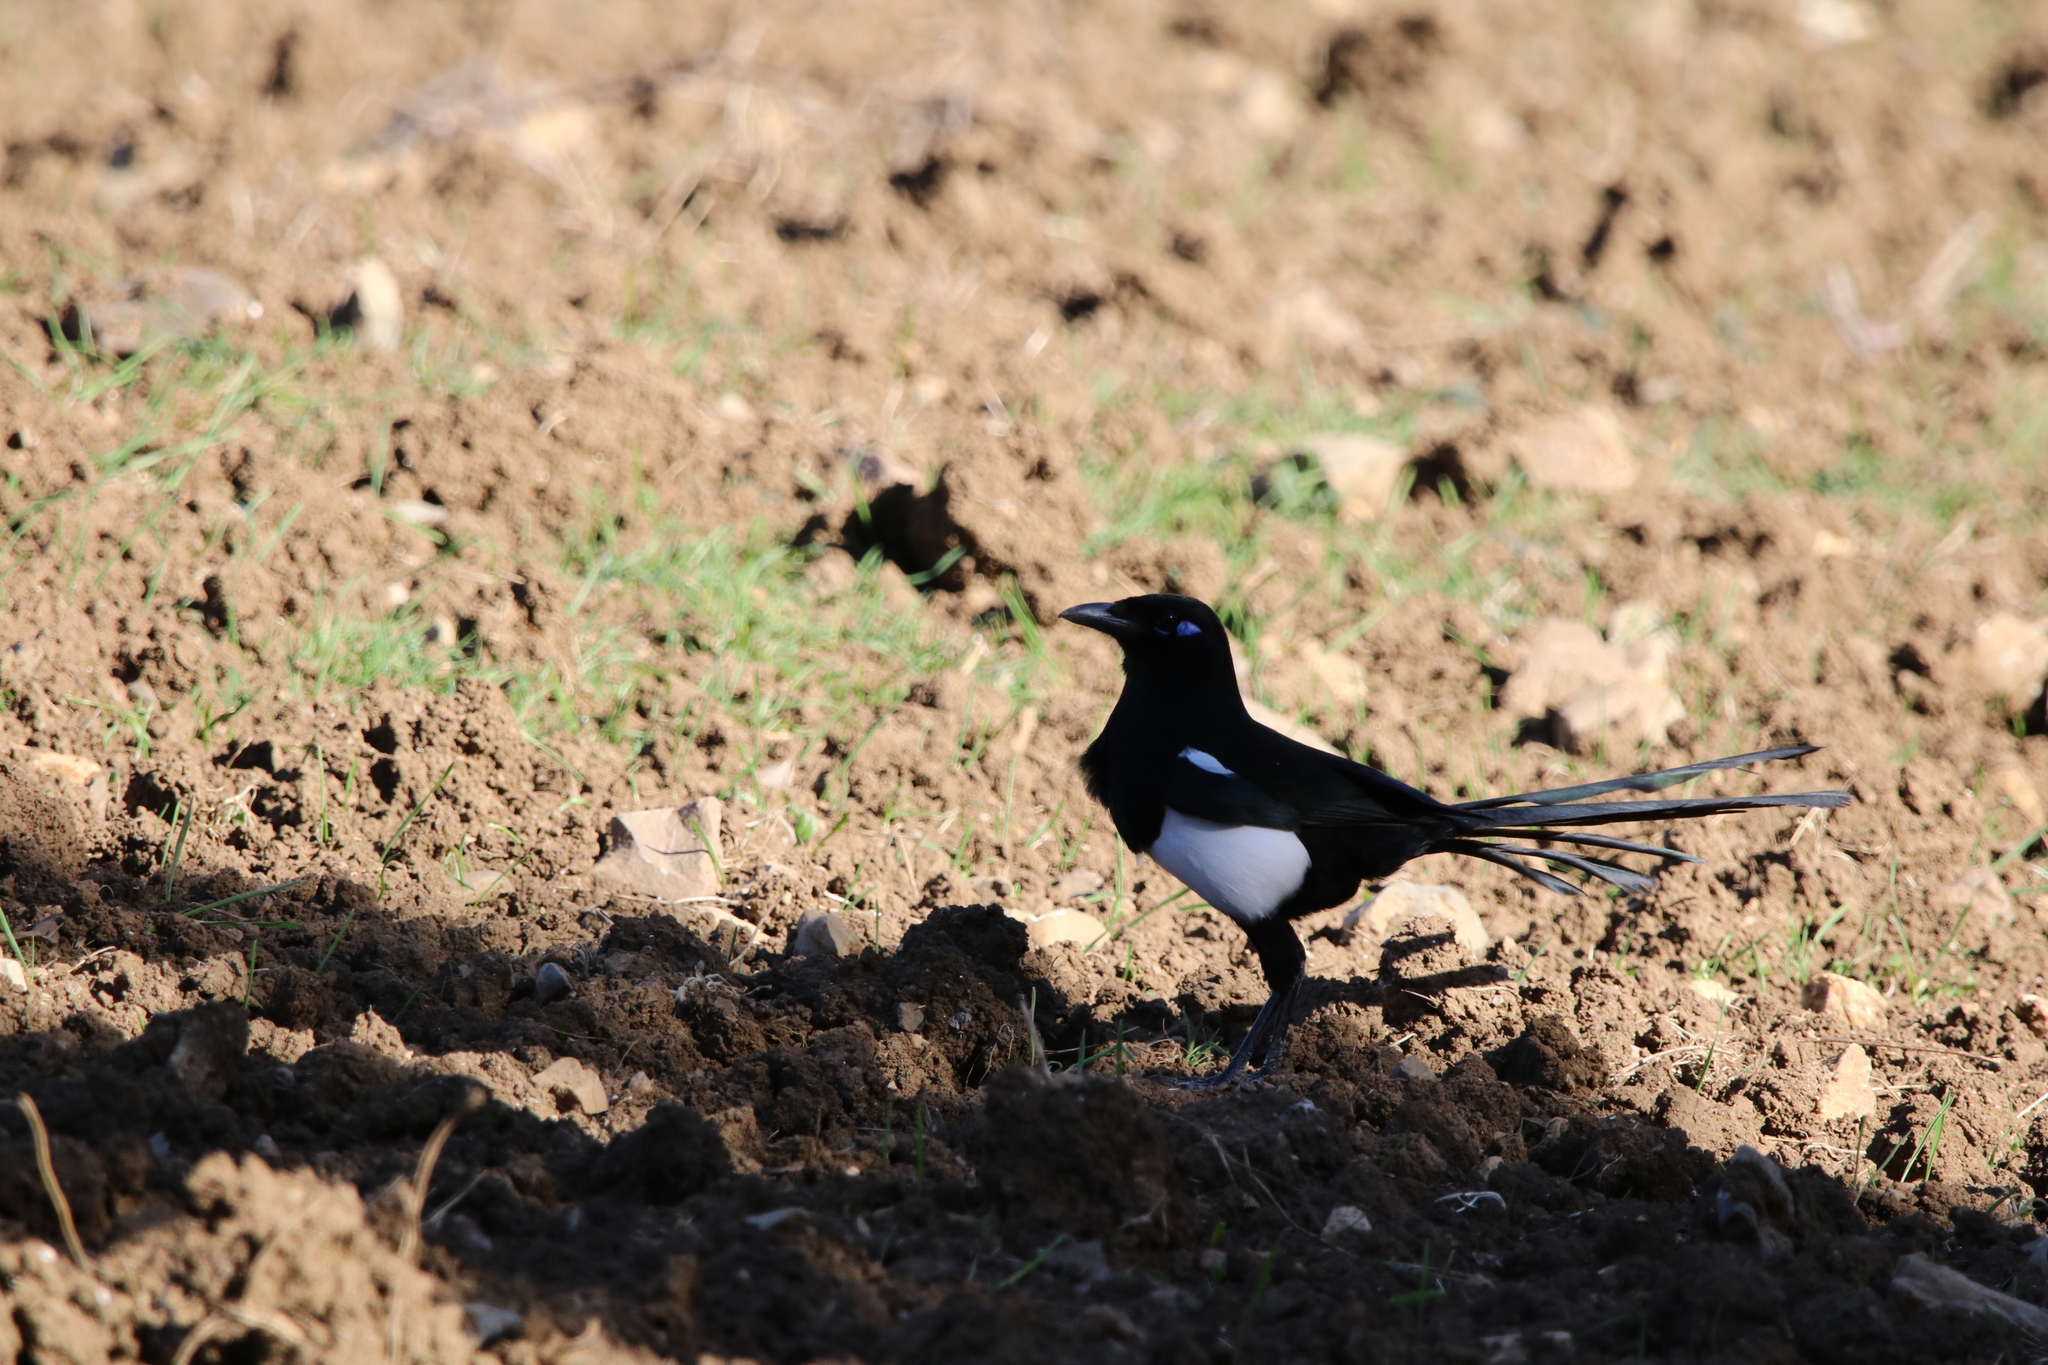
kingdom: Animalia
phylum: Chordata
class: Aves
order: Passeriformes
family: Corvidae
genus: Pica
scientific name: Pica mauritanica
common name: Maghreb magpie
